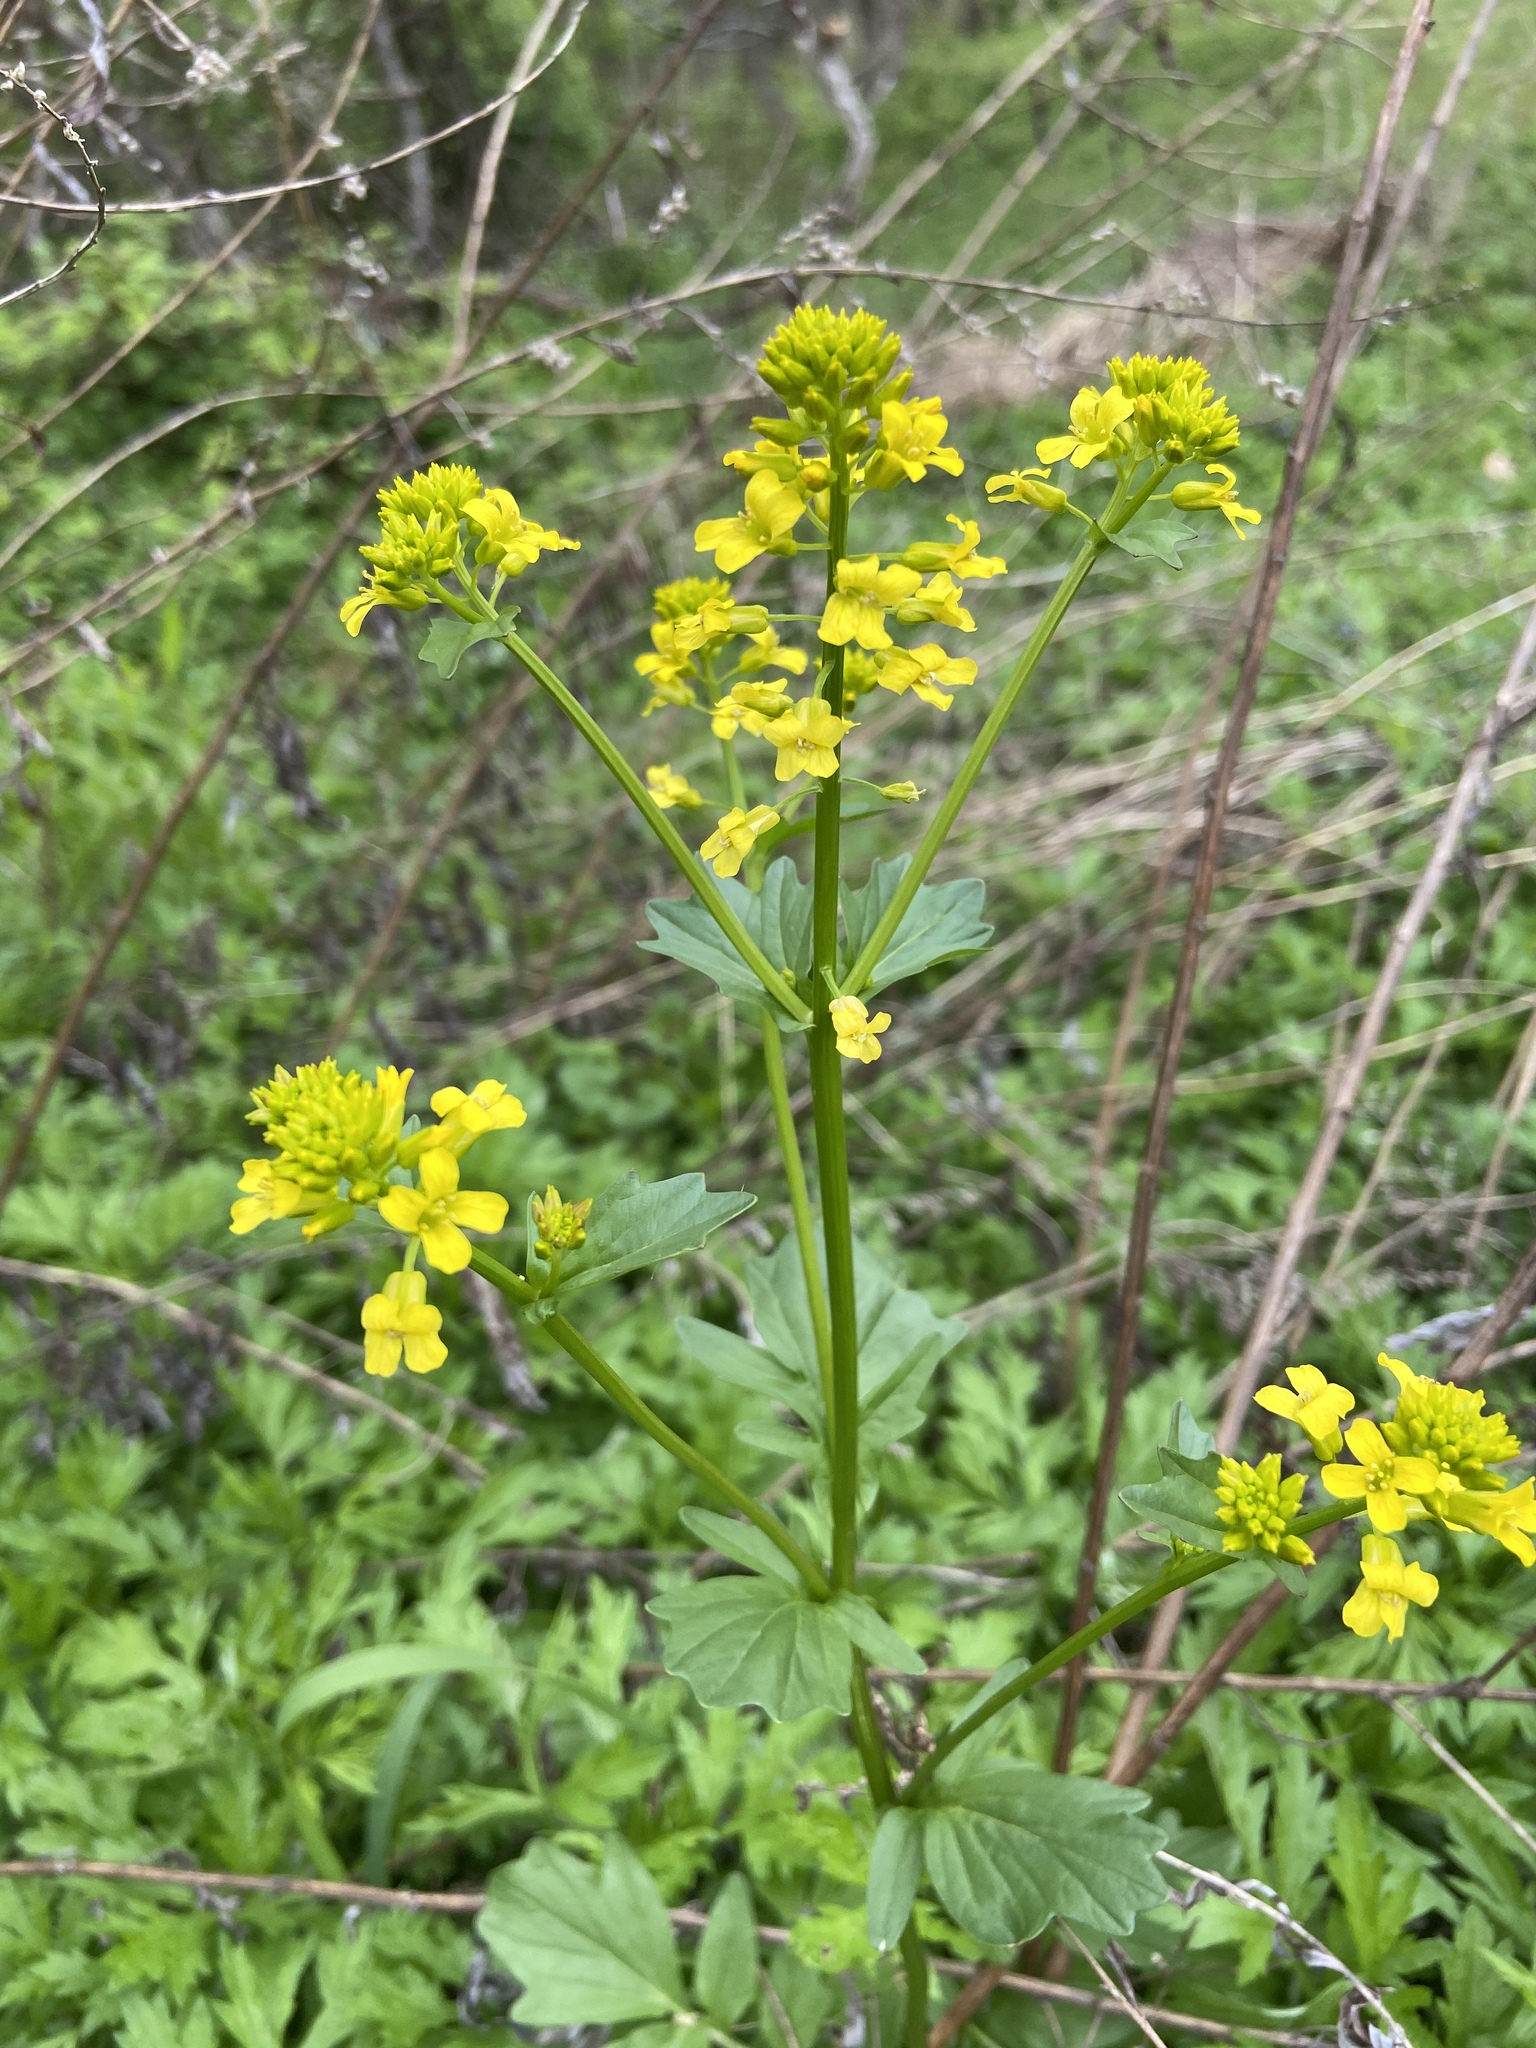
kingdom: Plantae
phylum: Tracheophyta
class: Magnoliopsida
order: Brassicales
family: Brassicaceae
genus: Barbarea
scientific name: Barbarea vulgaris
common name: Cressy-greens
